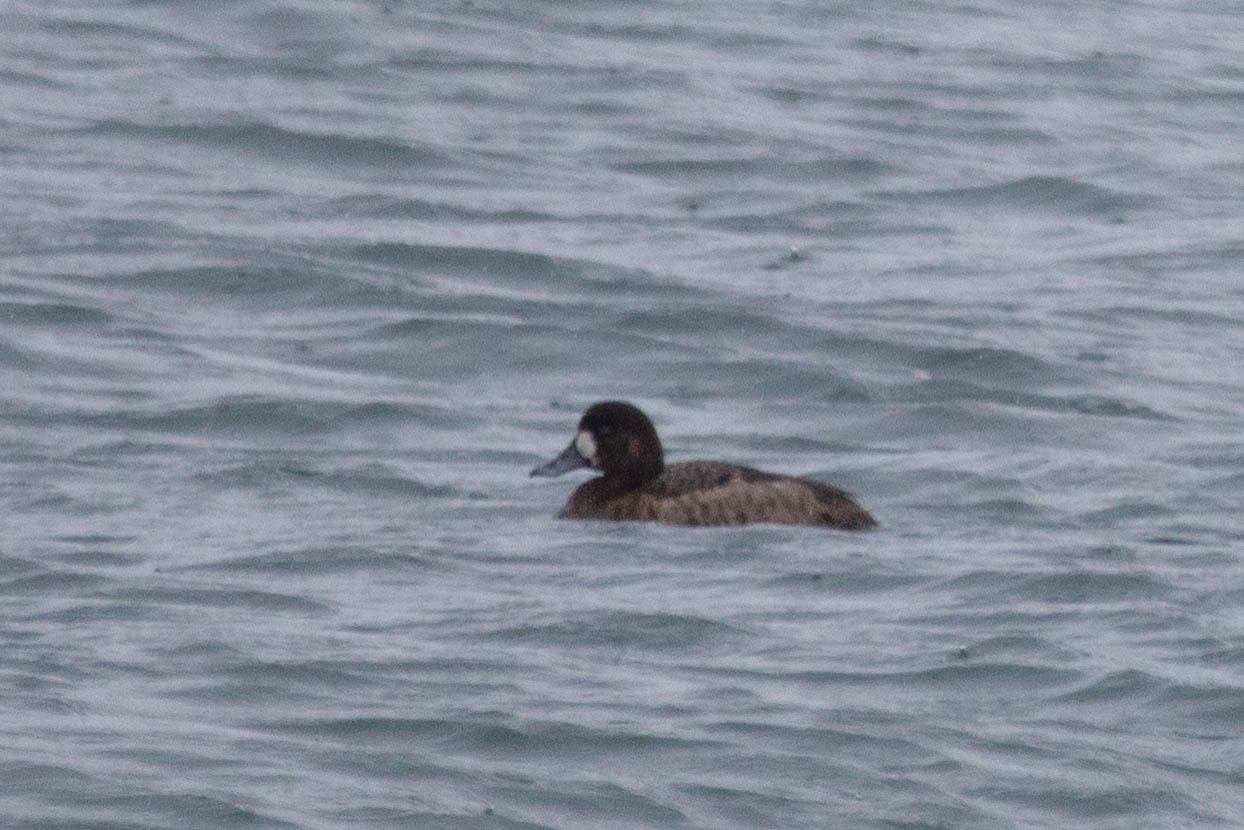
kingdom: Animalia
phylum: Chordata
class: Aves
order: Anseriformes
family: Anatidae
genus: Aythya
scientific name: Aythya marila
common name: Greater scaup
